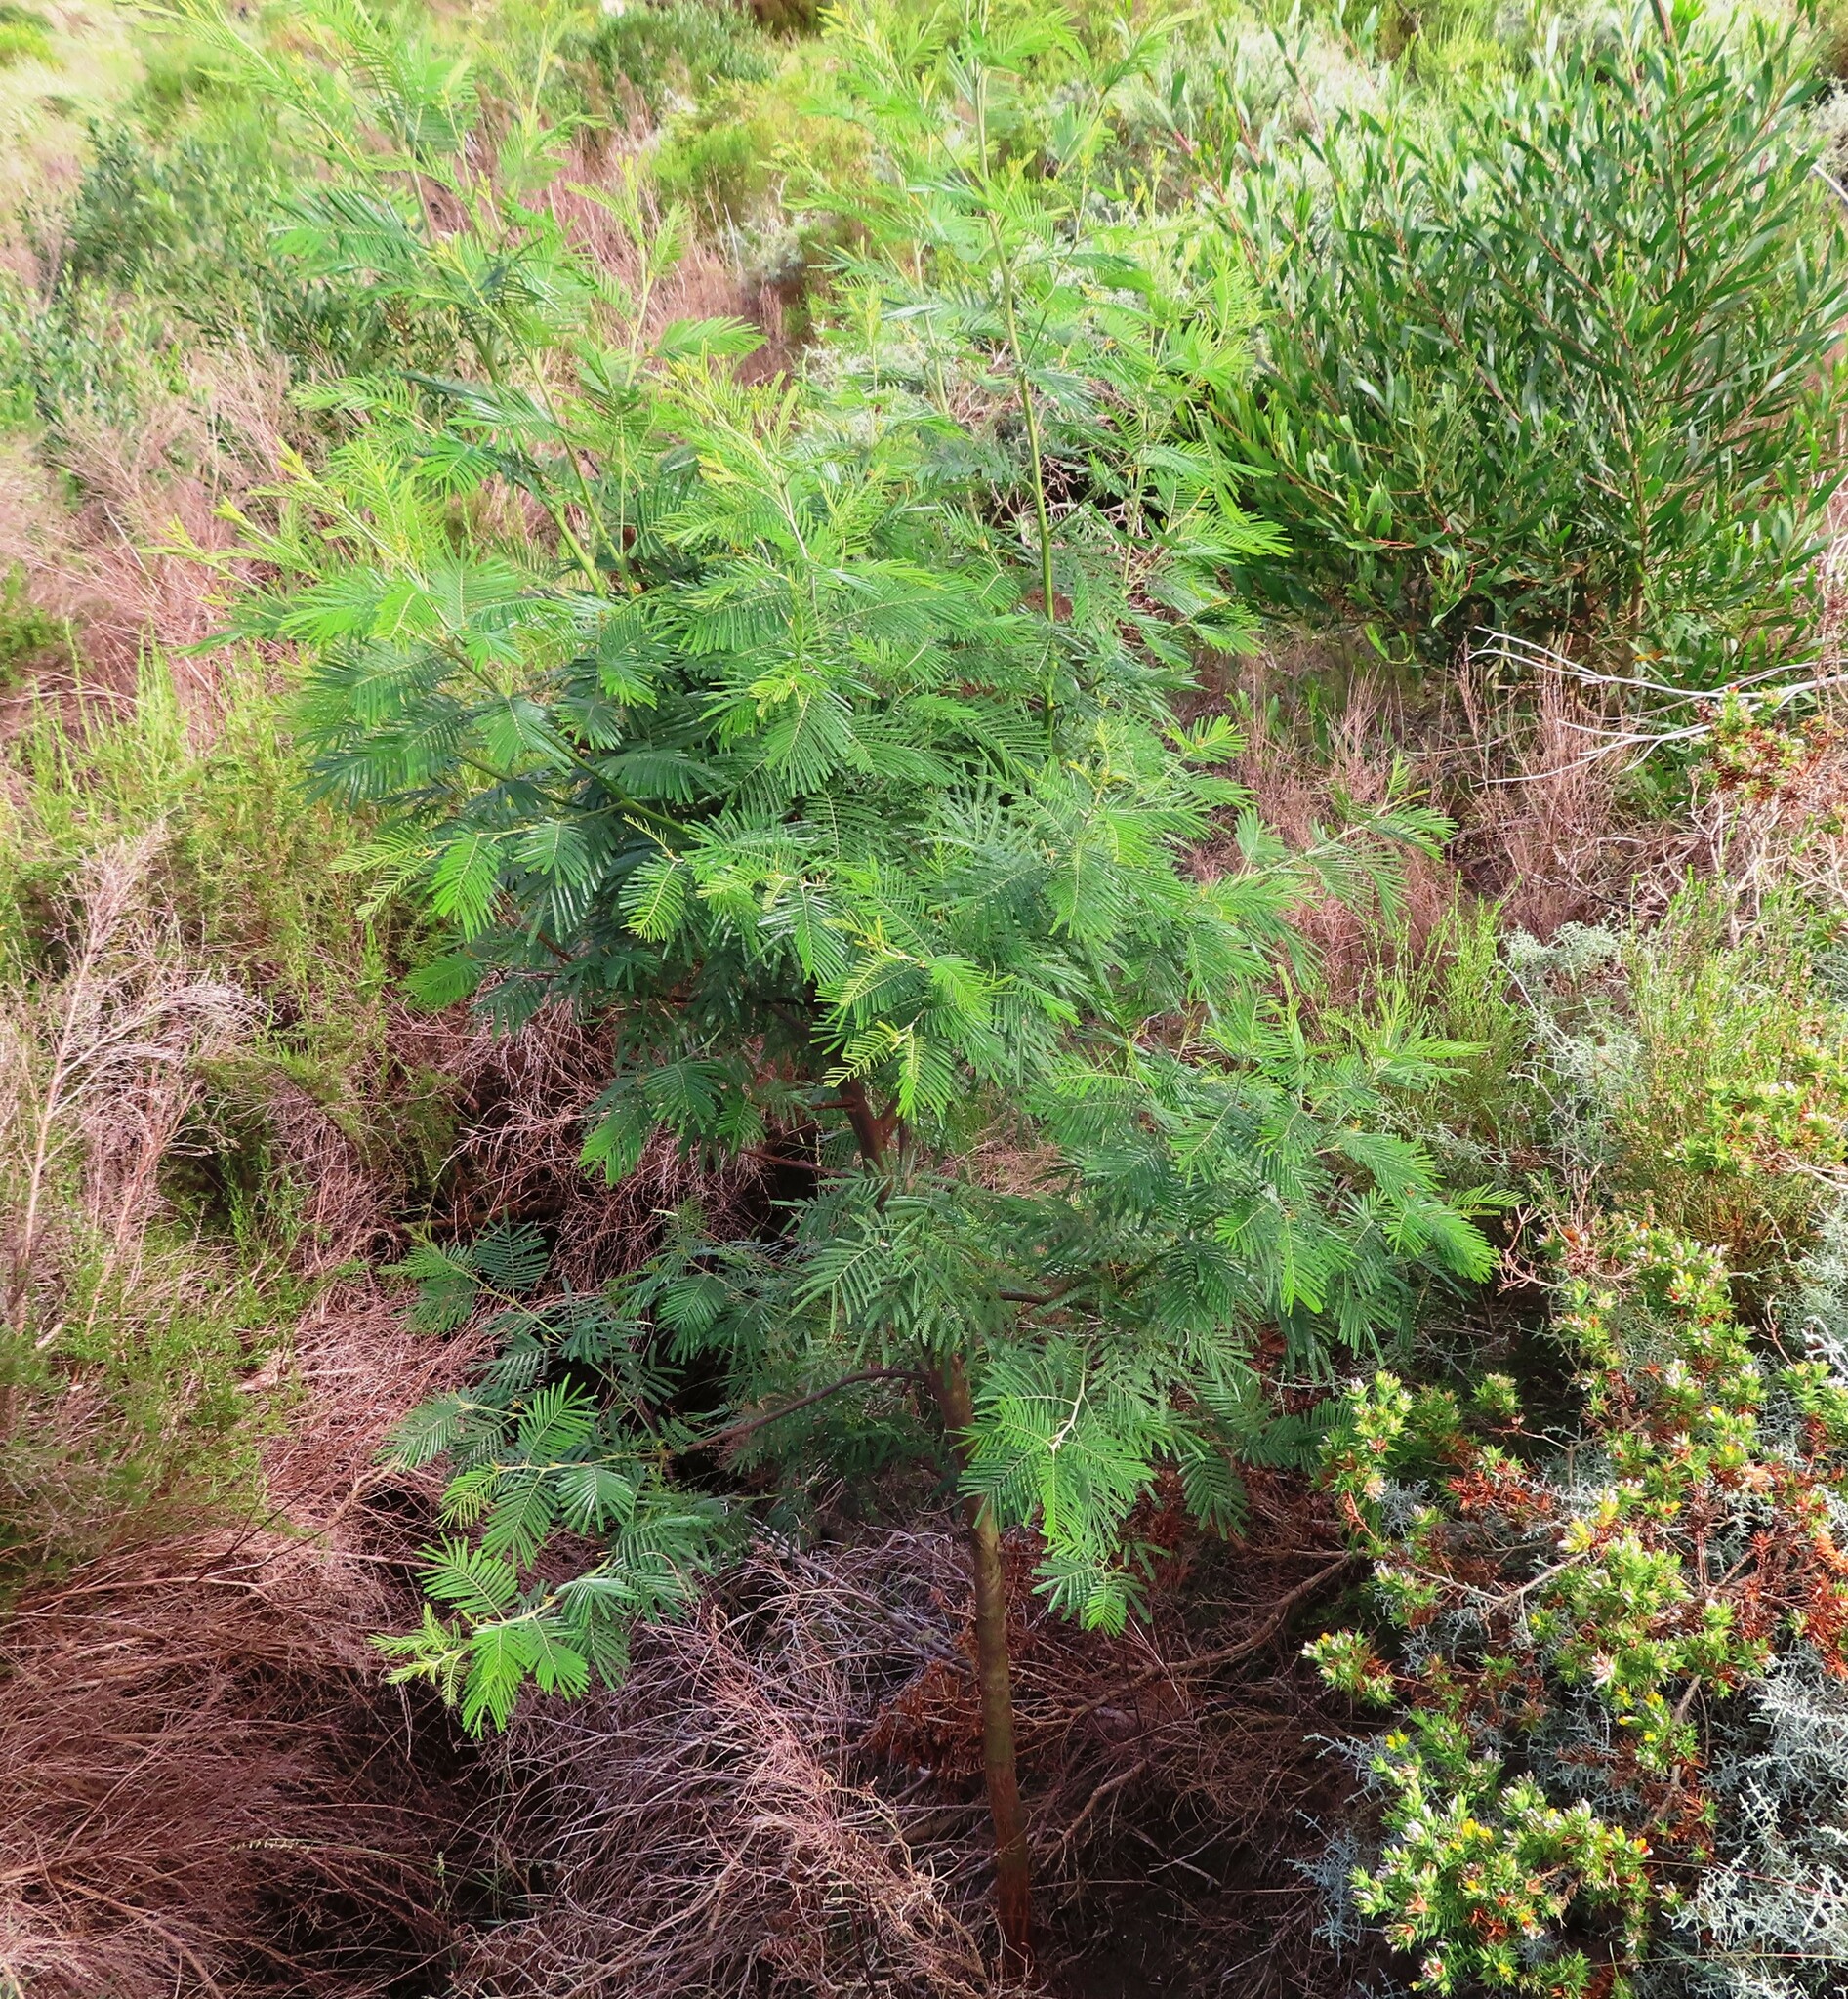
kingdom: Plantae
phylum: Tracheophyta
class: Magnoliopsida
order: Fabales
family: Fabaceae
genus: Acacia
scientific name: Acacia mearnsii
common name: Black wattle
